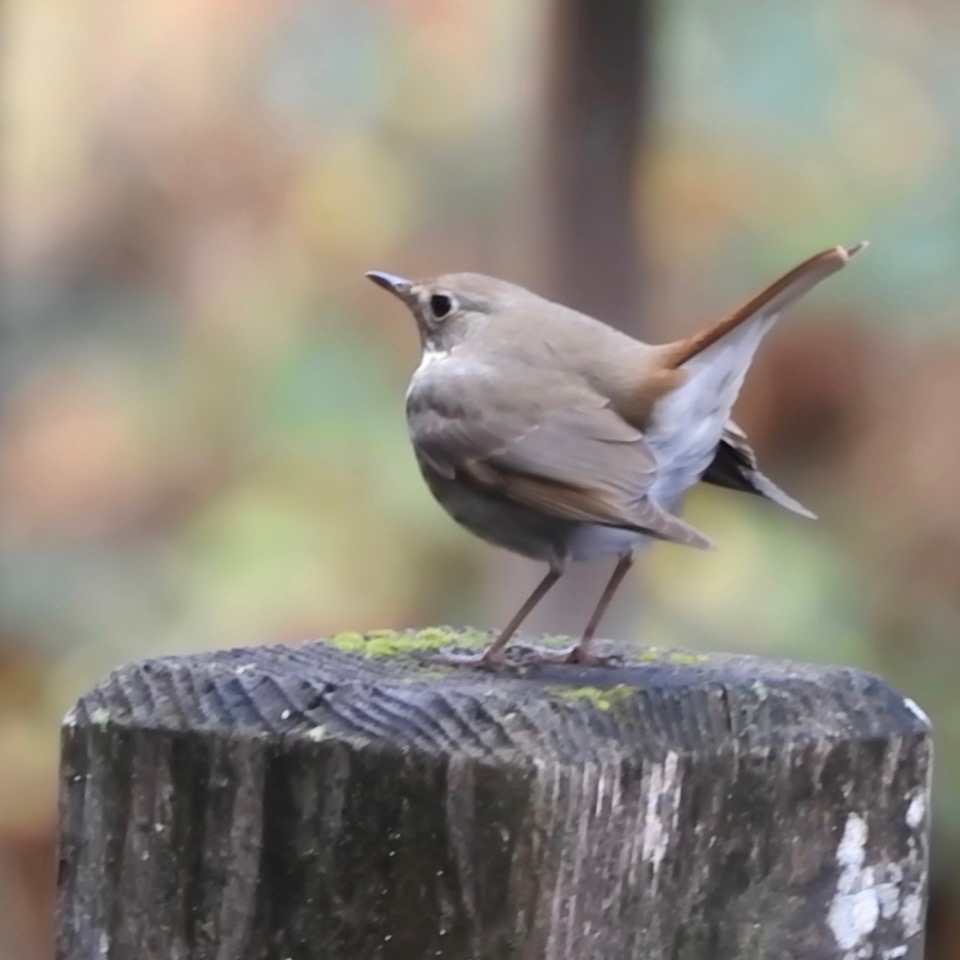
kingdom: Animalia
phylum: Chordata
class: Aves
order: Passeriformes
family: Turdidae
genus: Catharus
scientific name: Catharus guttatus
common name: Hermit thrush
